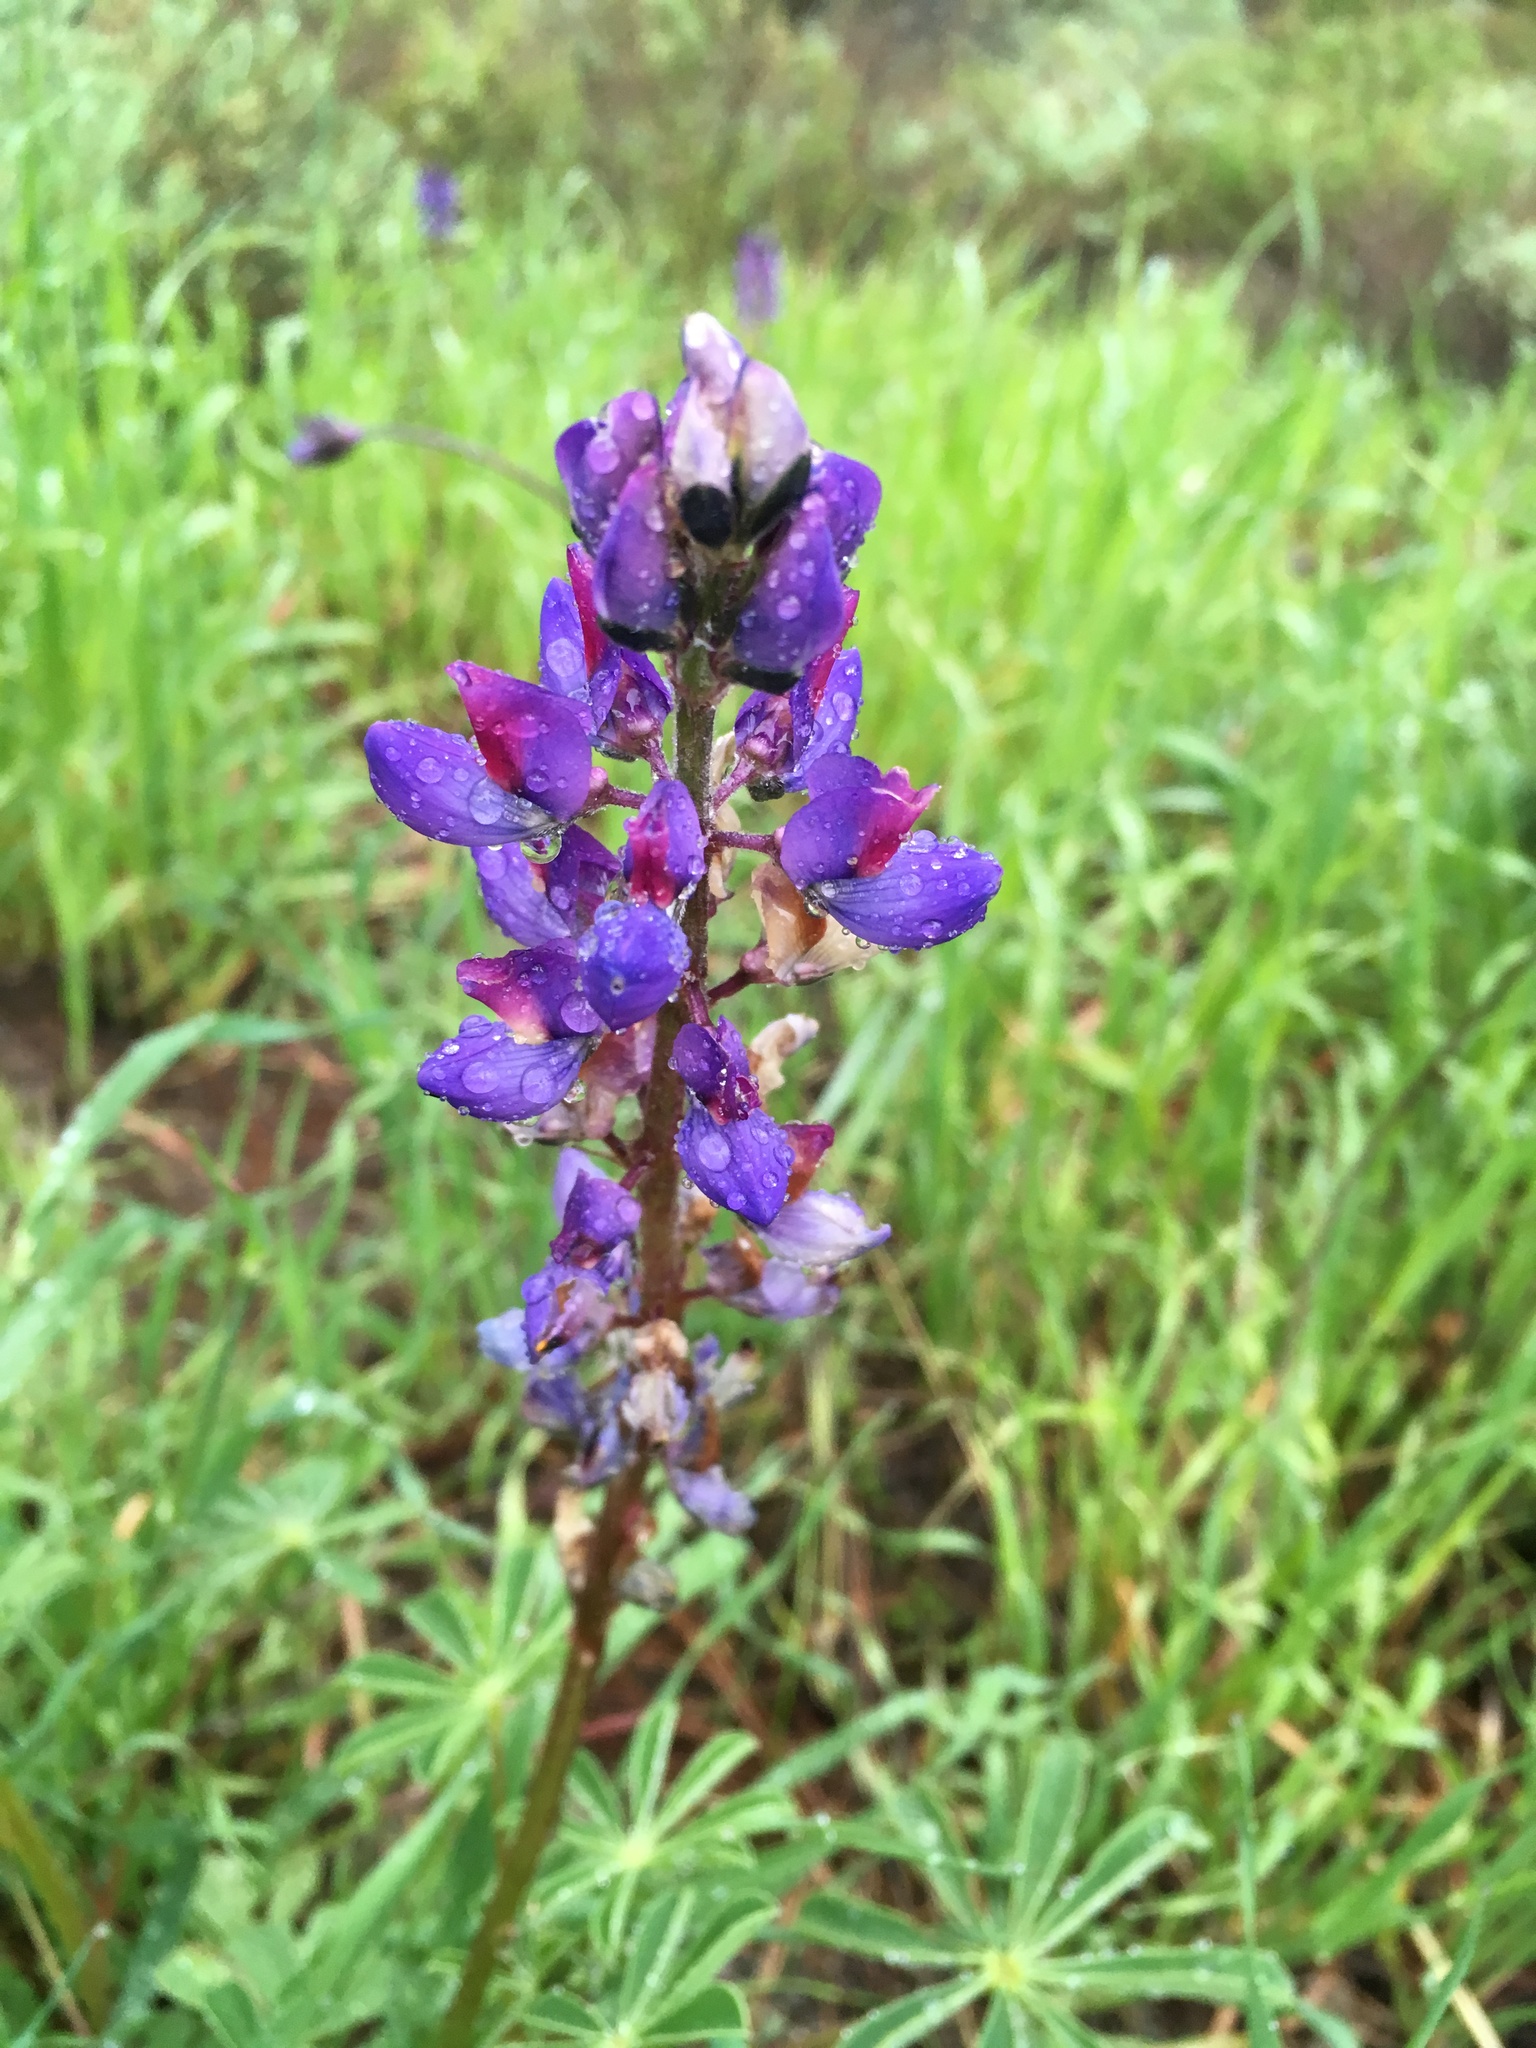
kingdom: Plantae
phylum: Tracheophyta
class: Magnoliopsida
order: Fabales
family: Fabaceae
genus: Lupinus
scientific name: Lupinus succulentus
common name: Arroyo lupine
